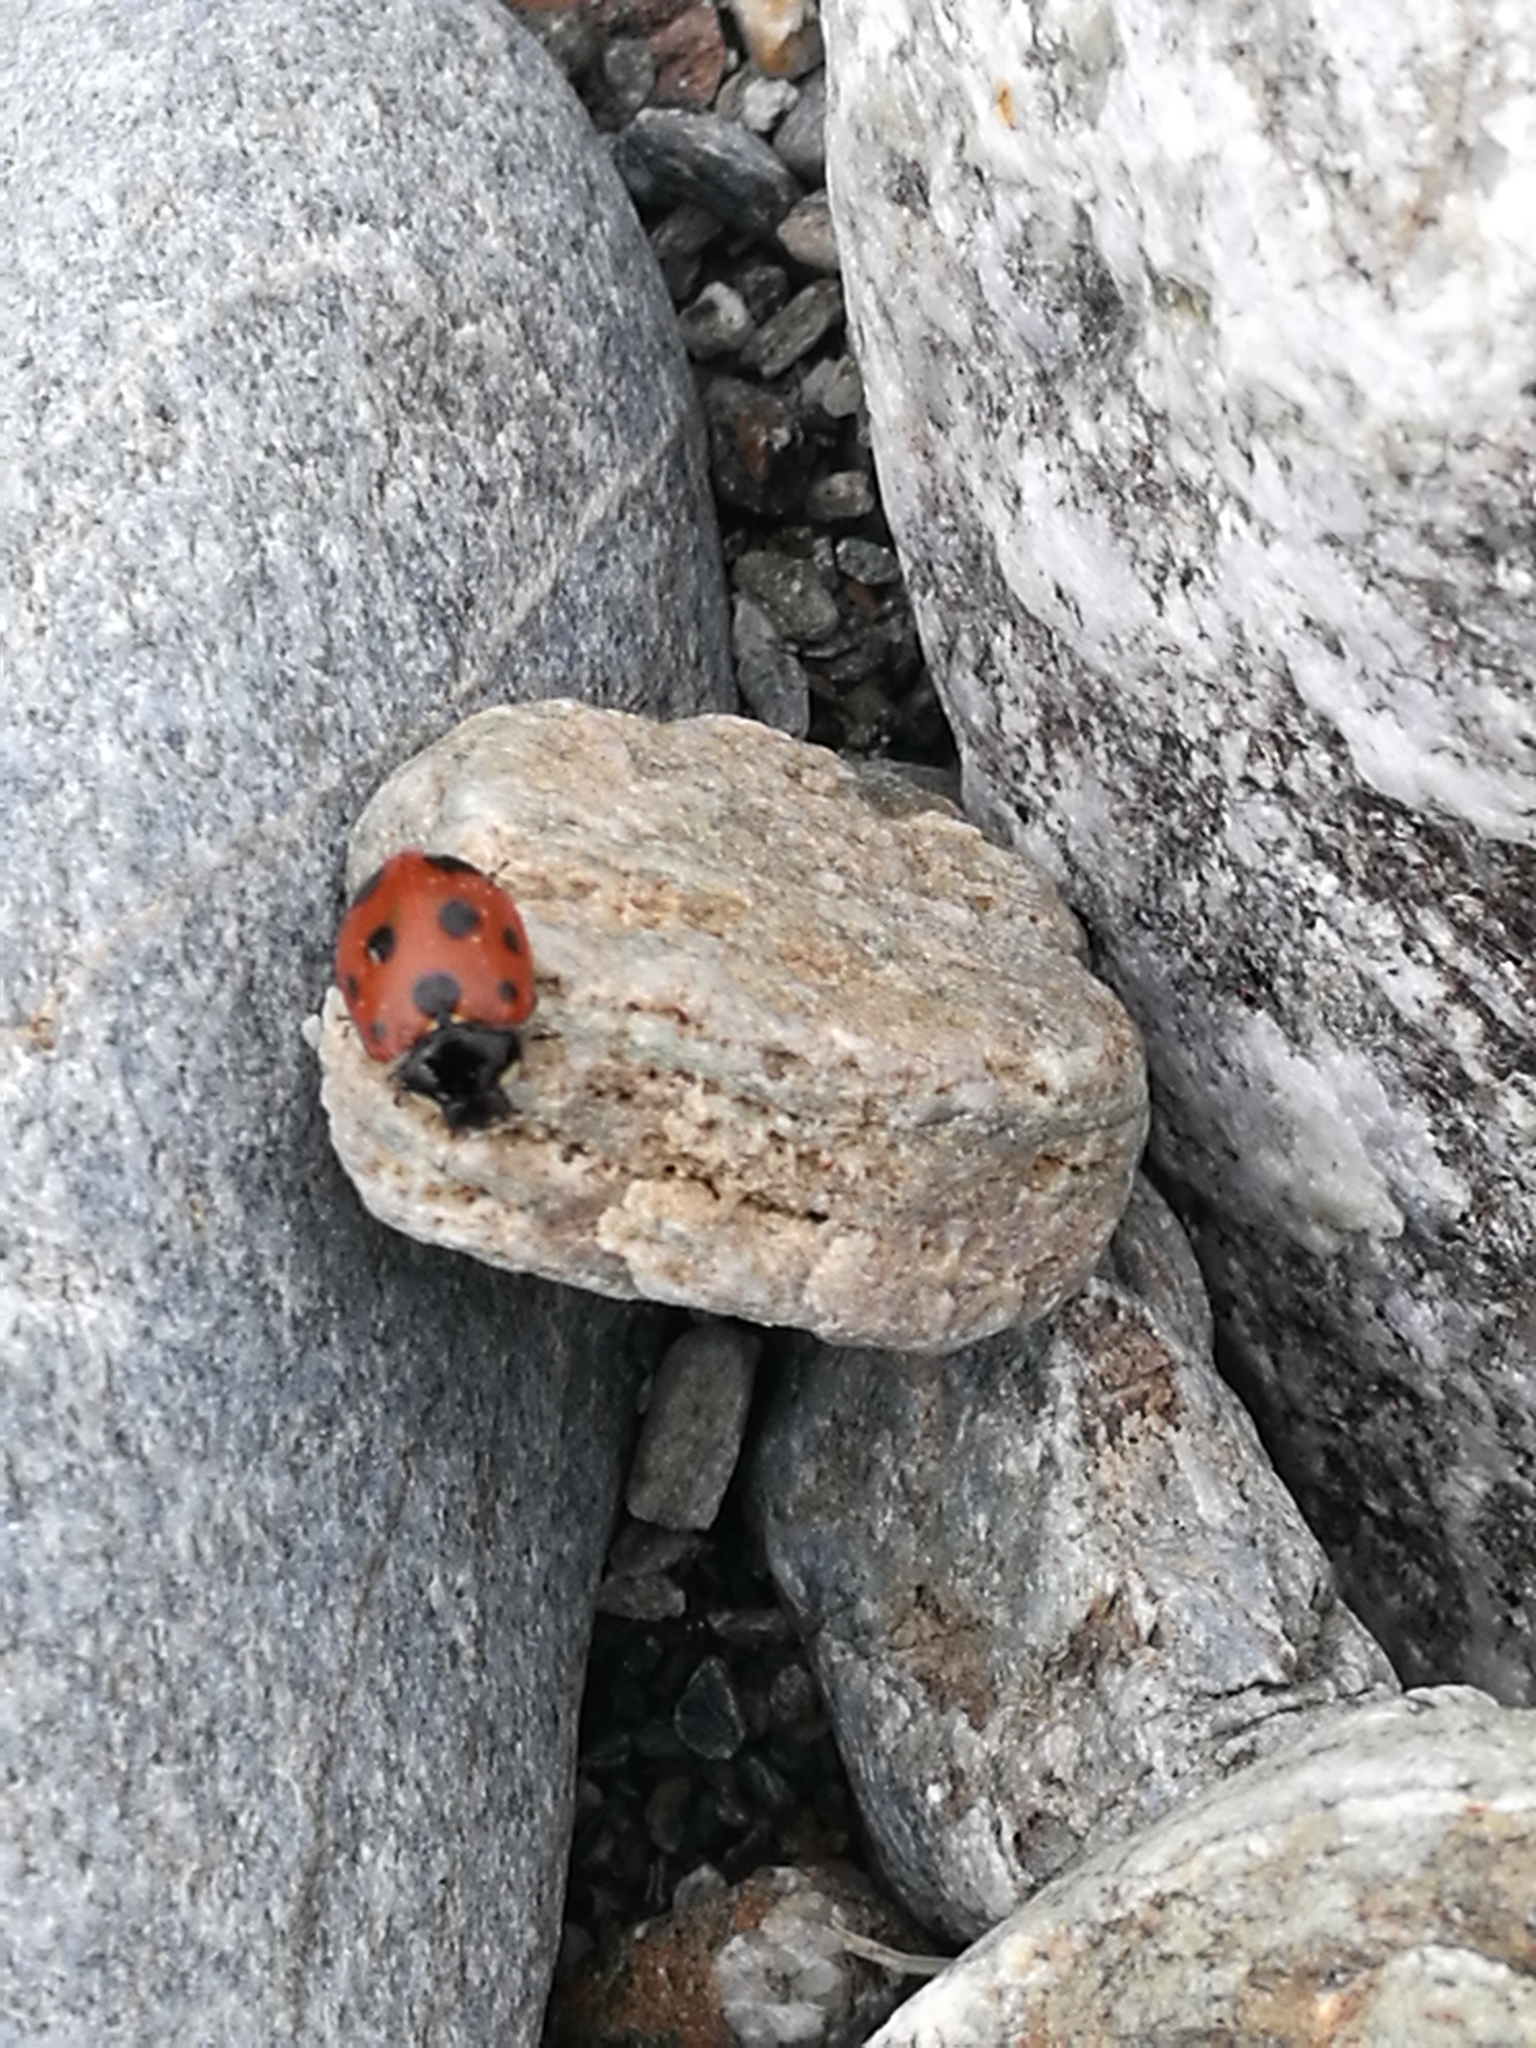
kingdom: Animalia
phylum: Arthropoda
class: Insecta
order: Coleoptera
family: Coccinellidae
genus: Coccinella
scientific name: Coccinella undecimpunctata
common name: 11-spot ladybird
